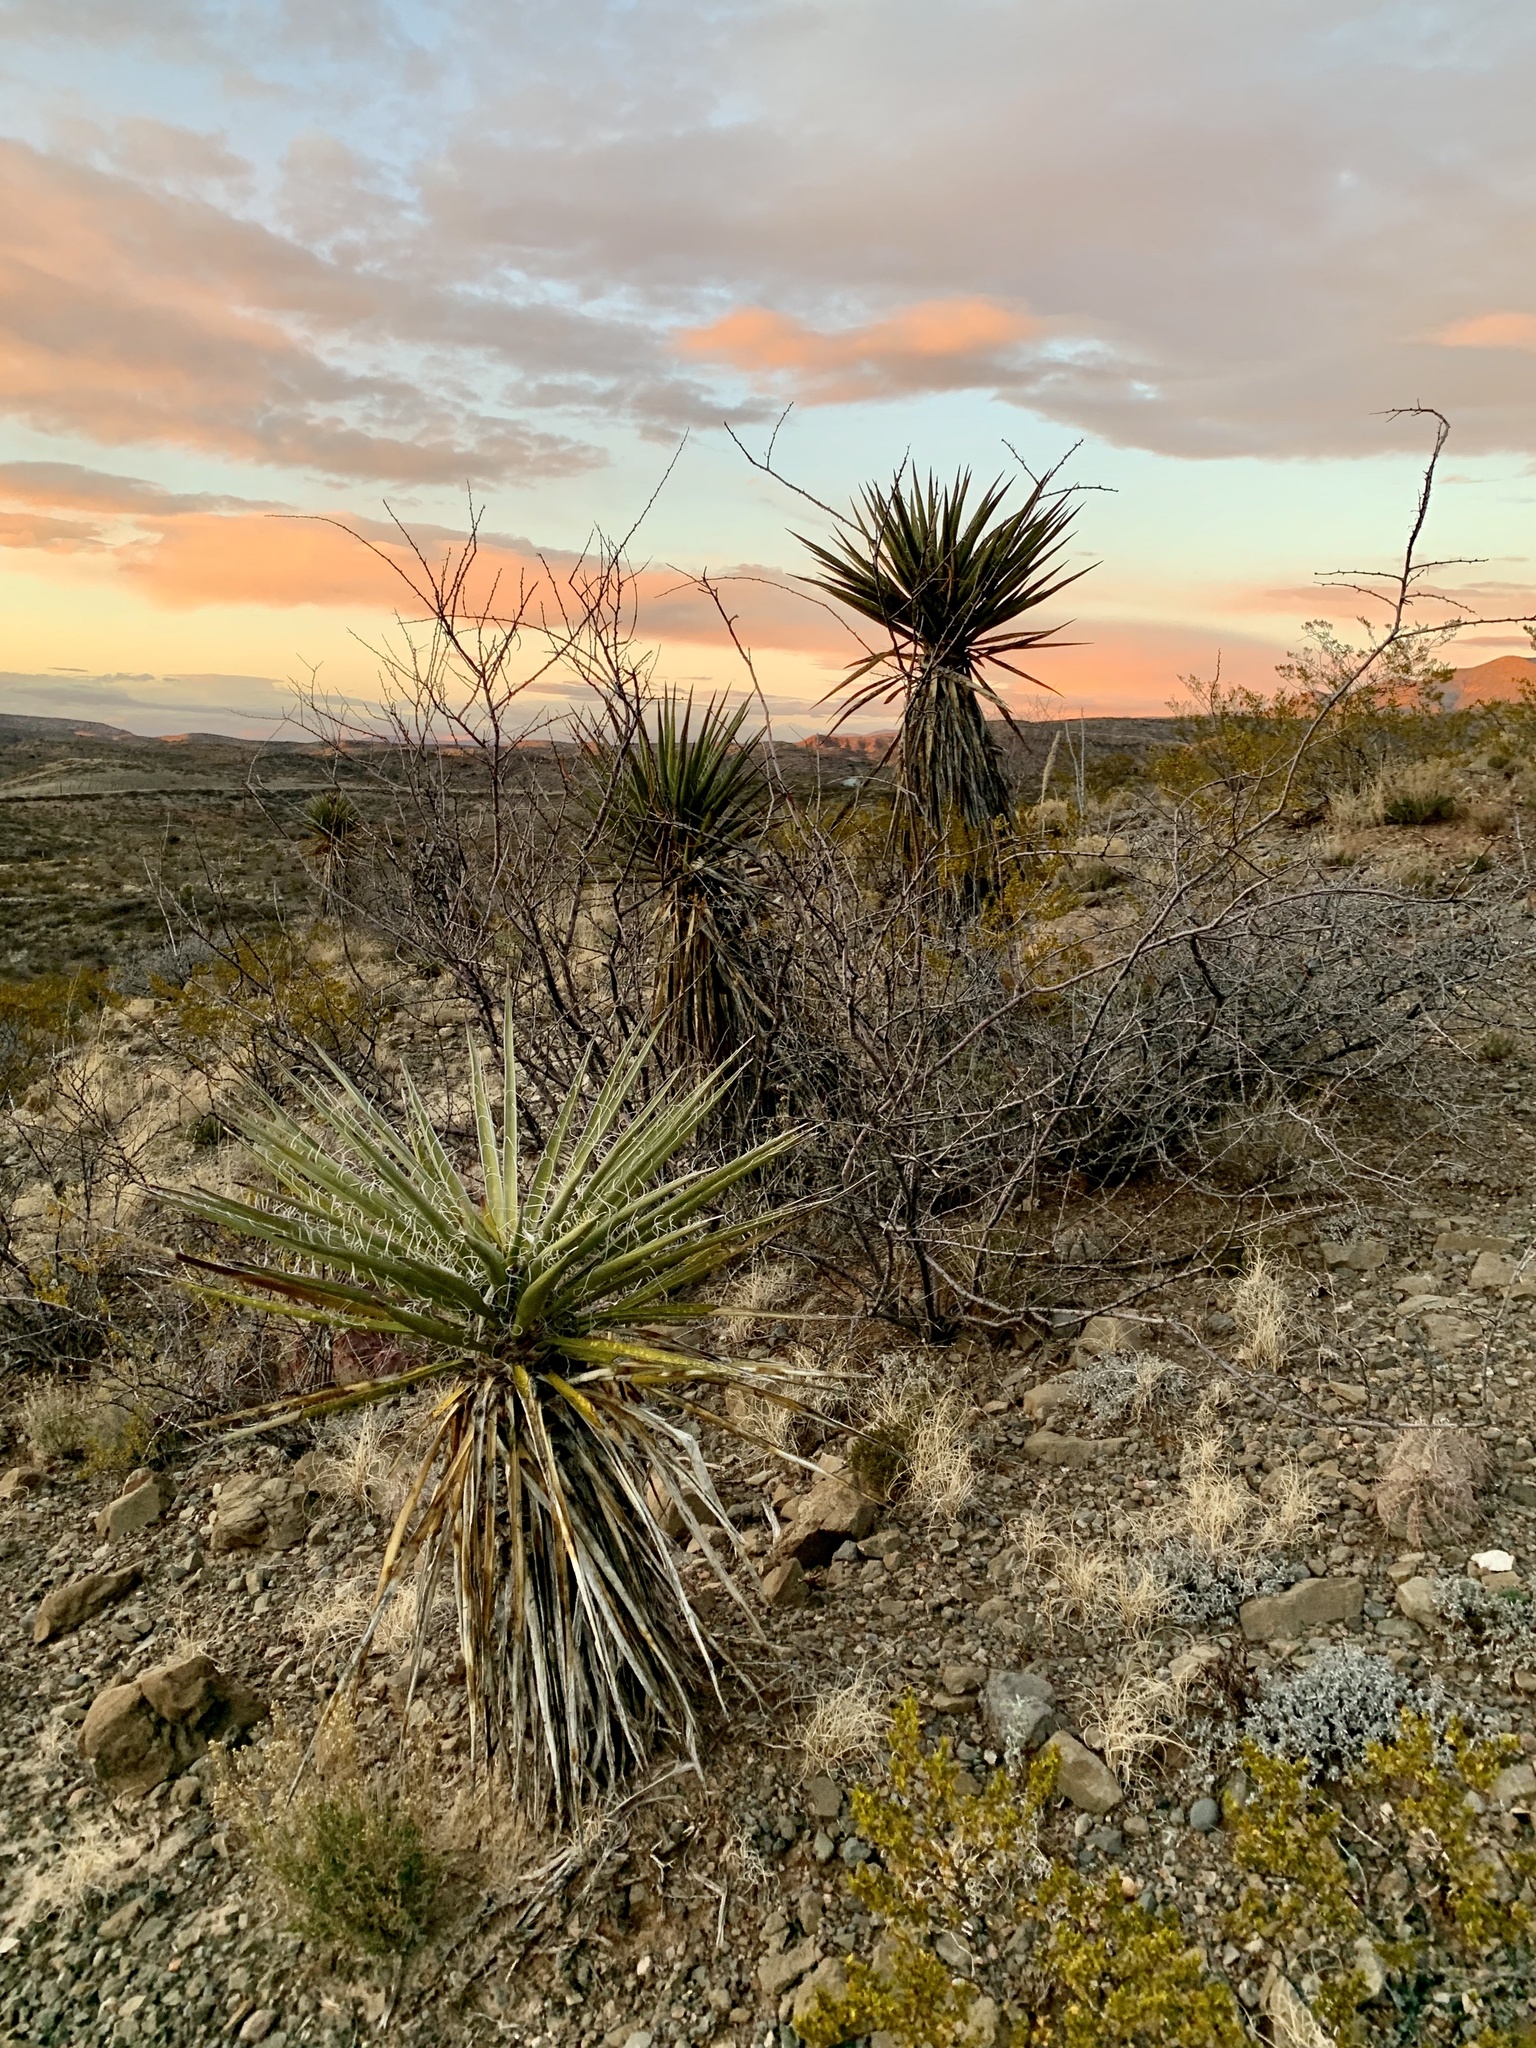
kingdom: Plantae
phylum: Tracheophyta
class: Liliopsida
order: Asparagales
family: Asparagaceae
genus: Yucca
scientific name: Yucca treculiana
